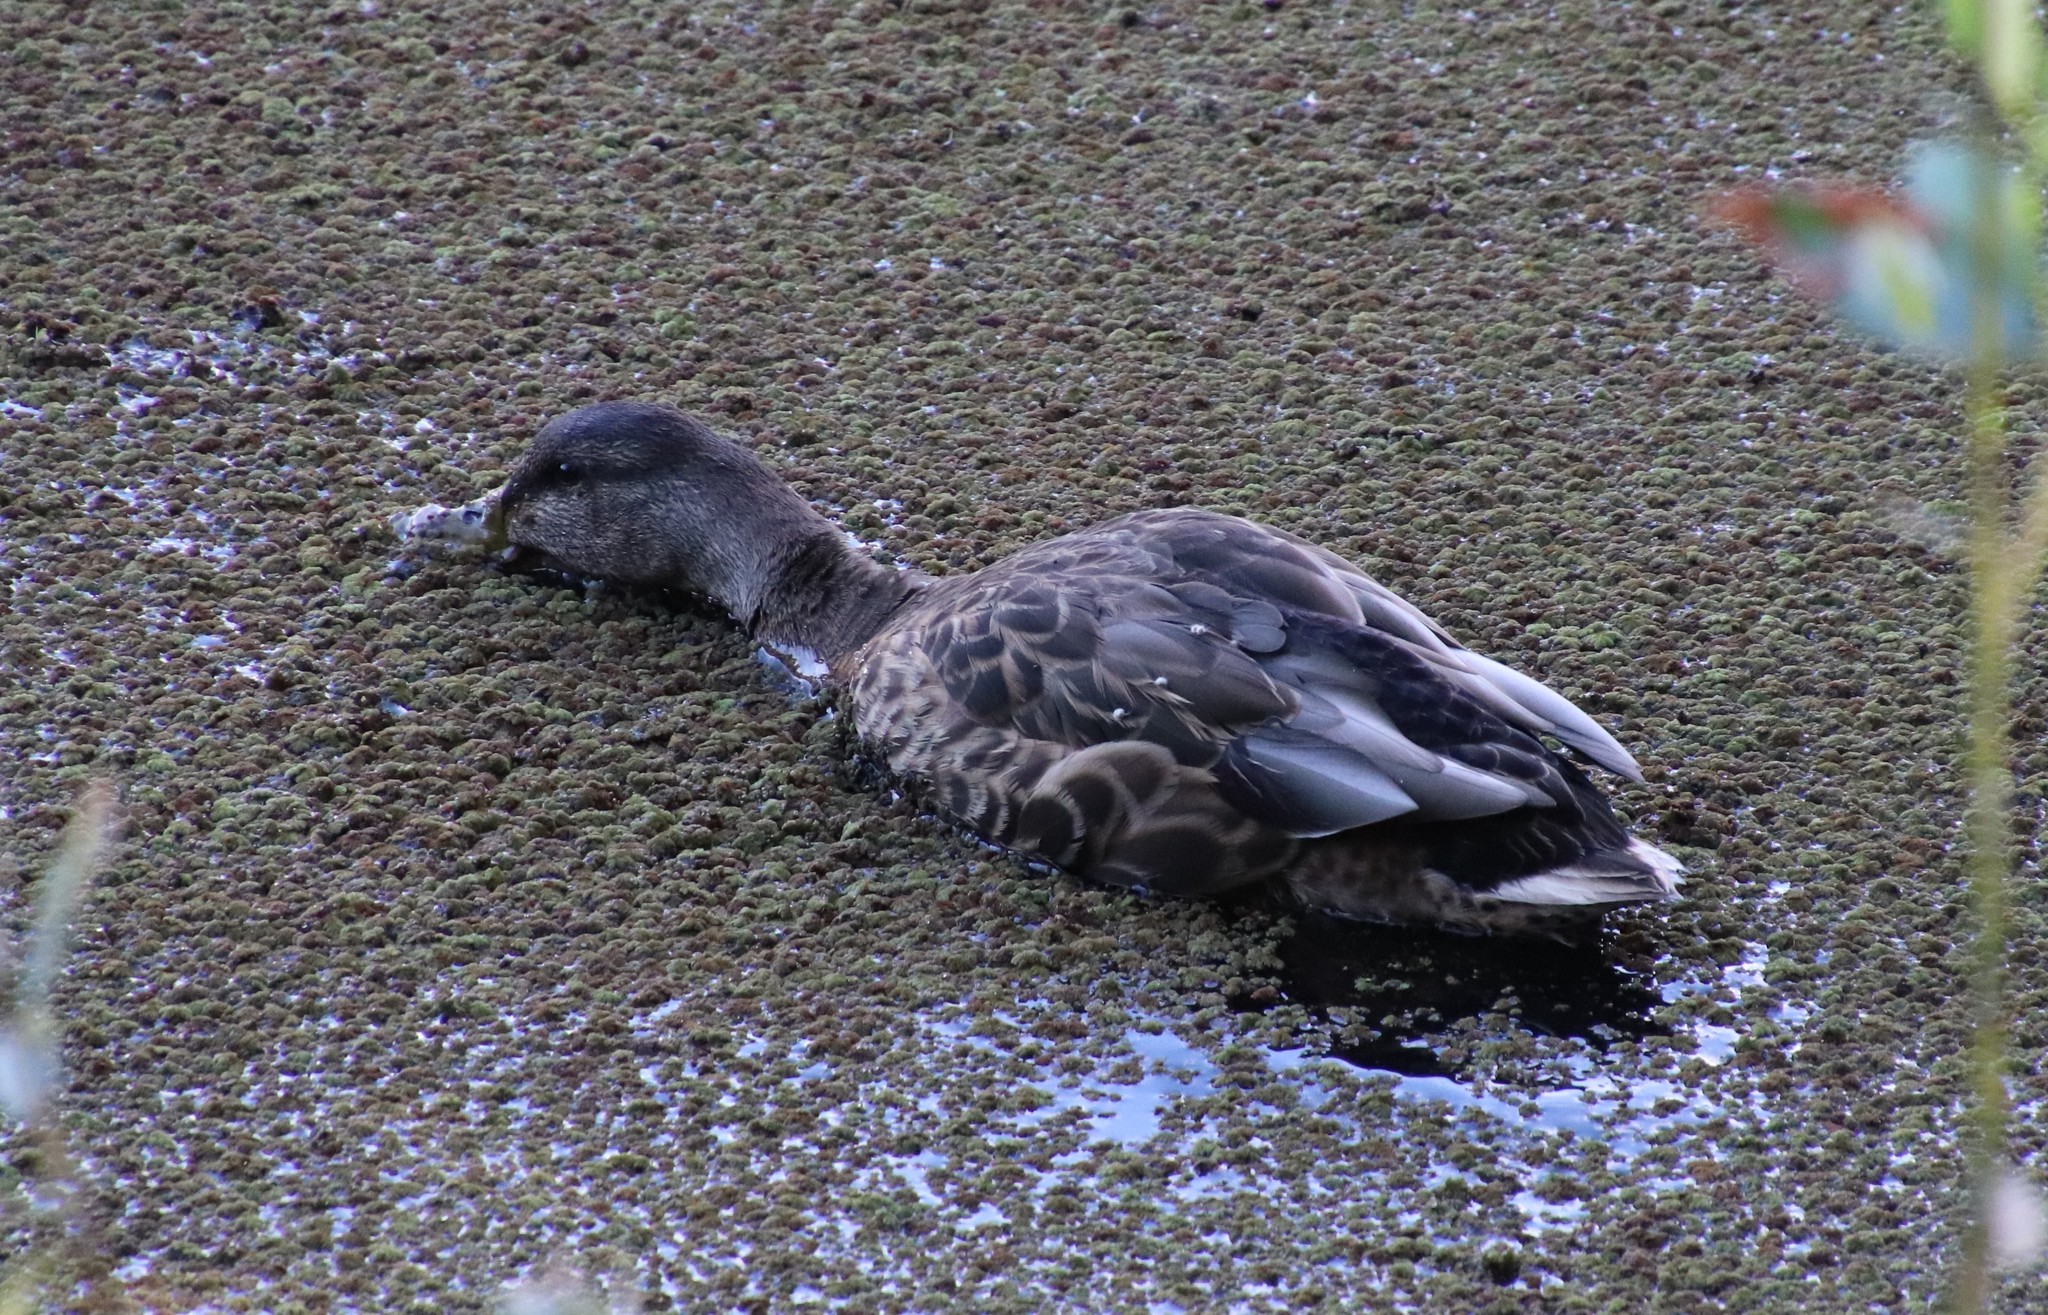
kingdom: Animalia
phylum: Chordata
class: Aves
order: Anseriformes
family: Anatidae
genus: Anas
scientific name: Anas platyrhynchos
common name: Mallard
